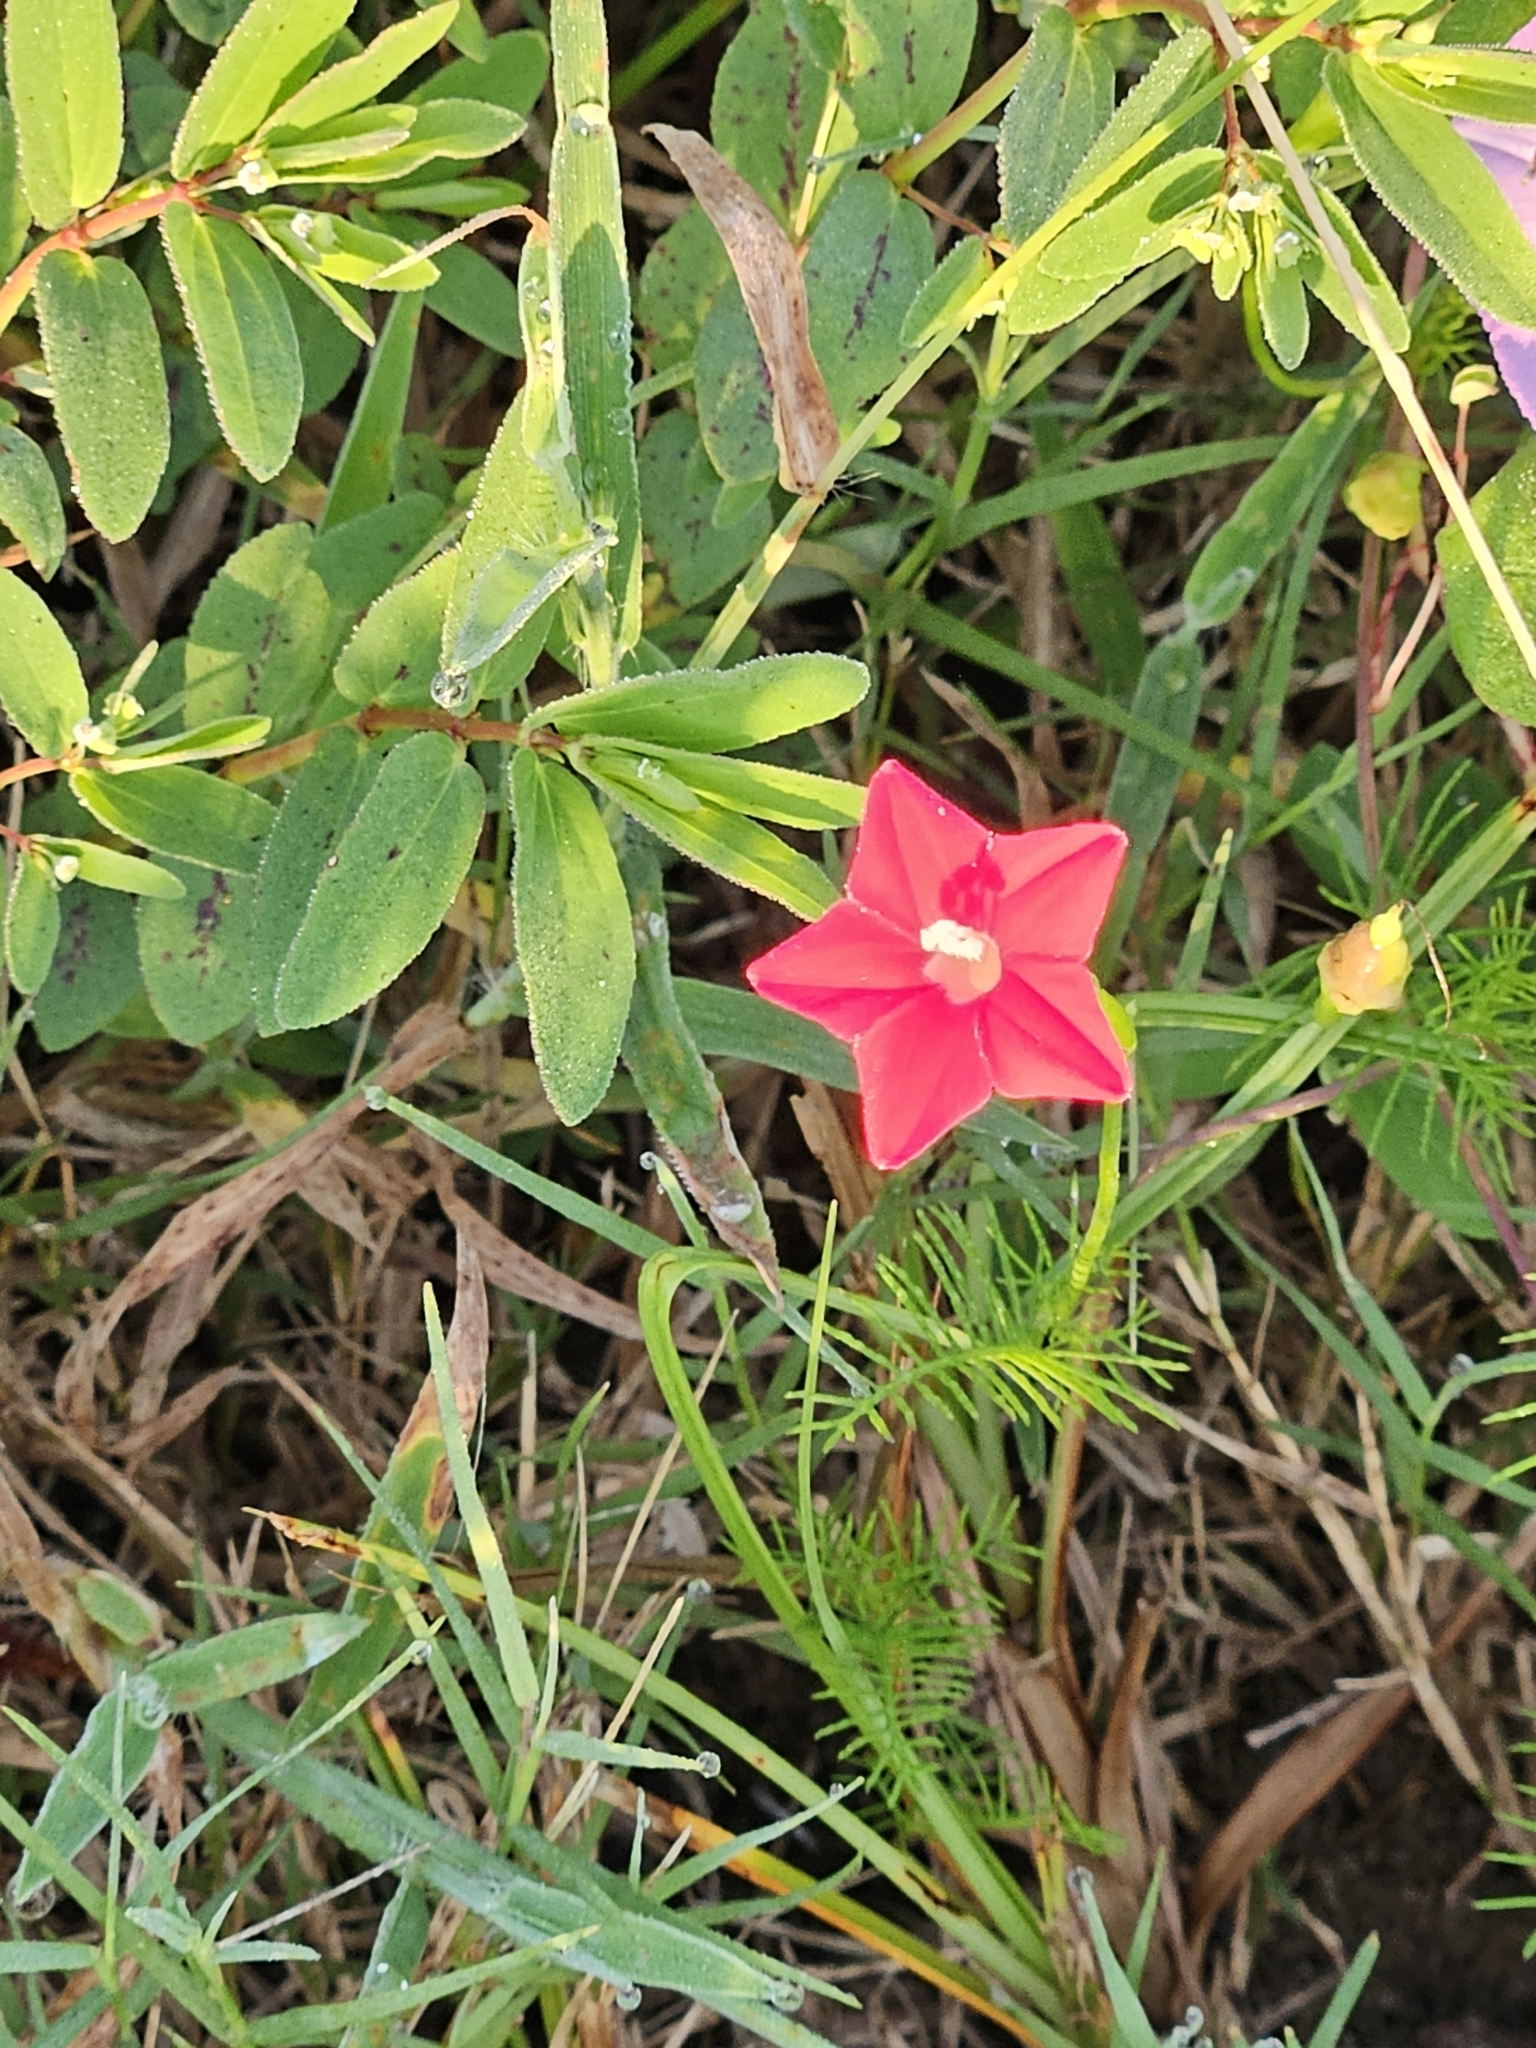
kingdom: Plantae
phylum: Tracheophyta
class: Magnoliopsida
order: Solanales
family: Convolvulaceae
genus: Ipomoea
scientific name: Ipomoea quamoclit
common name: Cypress vine
